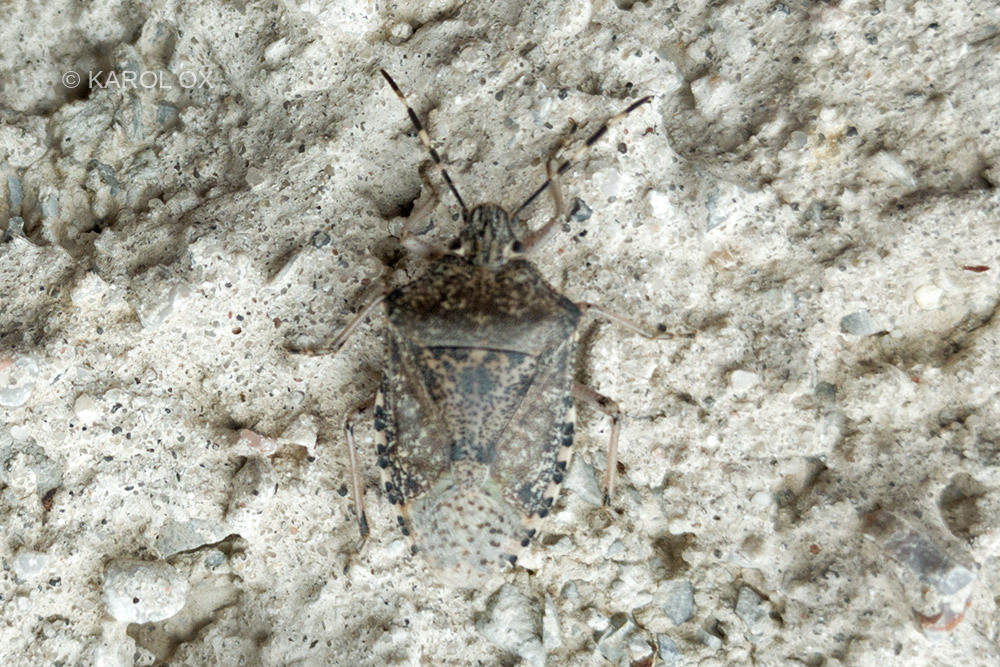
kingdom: Animalia
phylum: Arthropoda
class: Insecta
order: Hemiptera
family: Pentatomidae
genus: Rhaphigaster
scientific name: Rhaphigaster nebulosa
